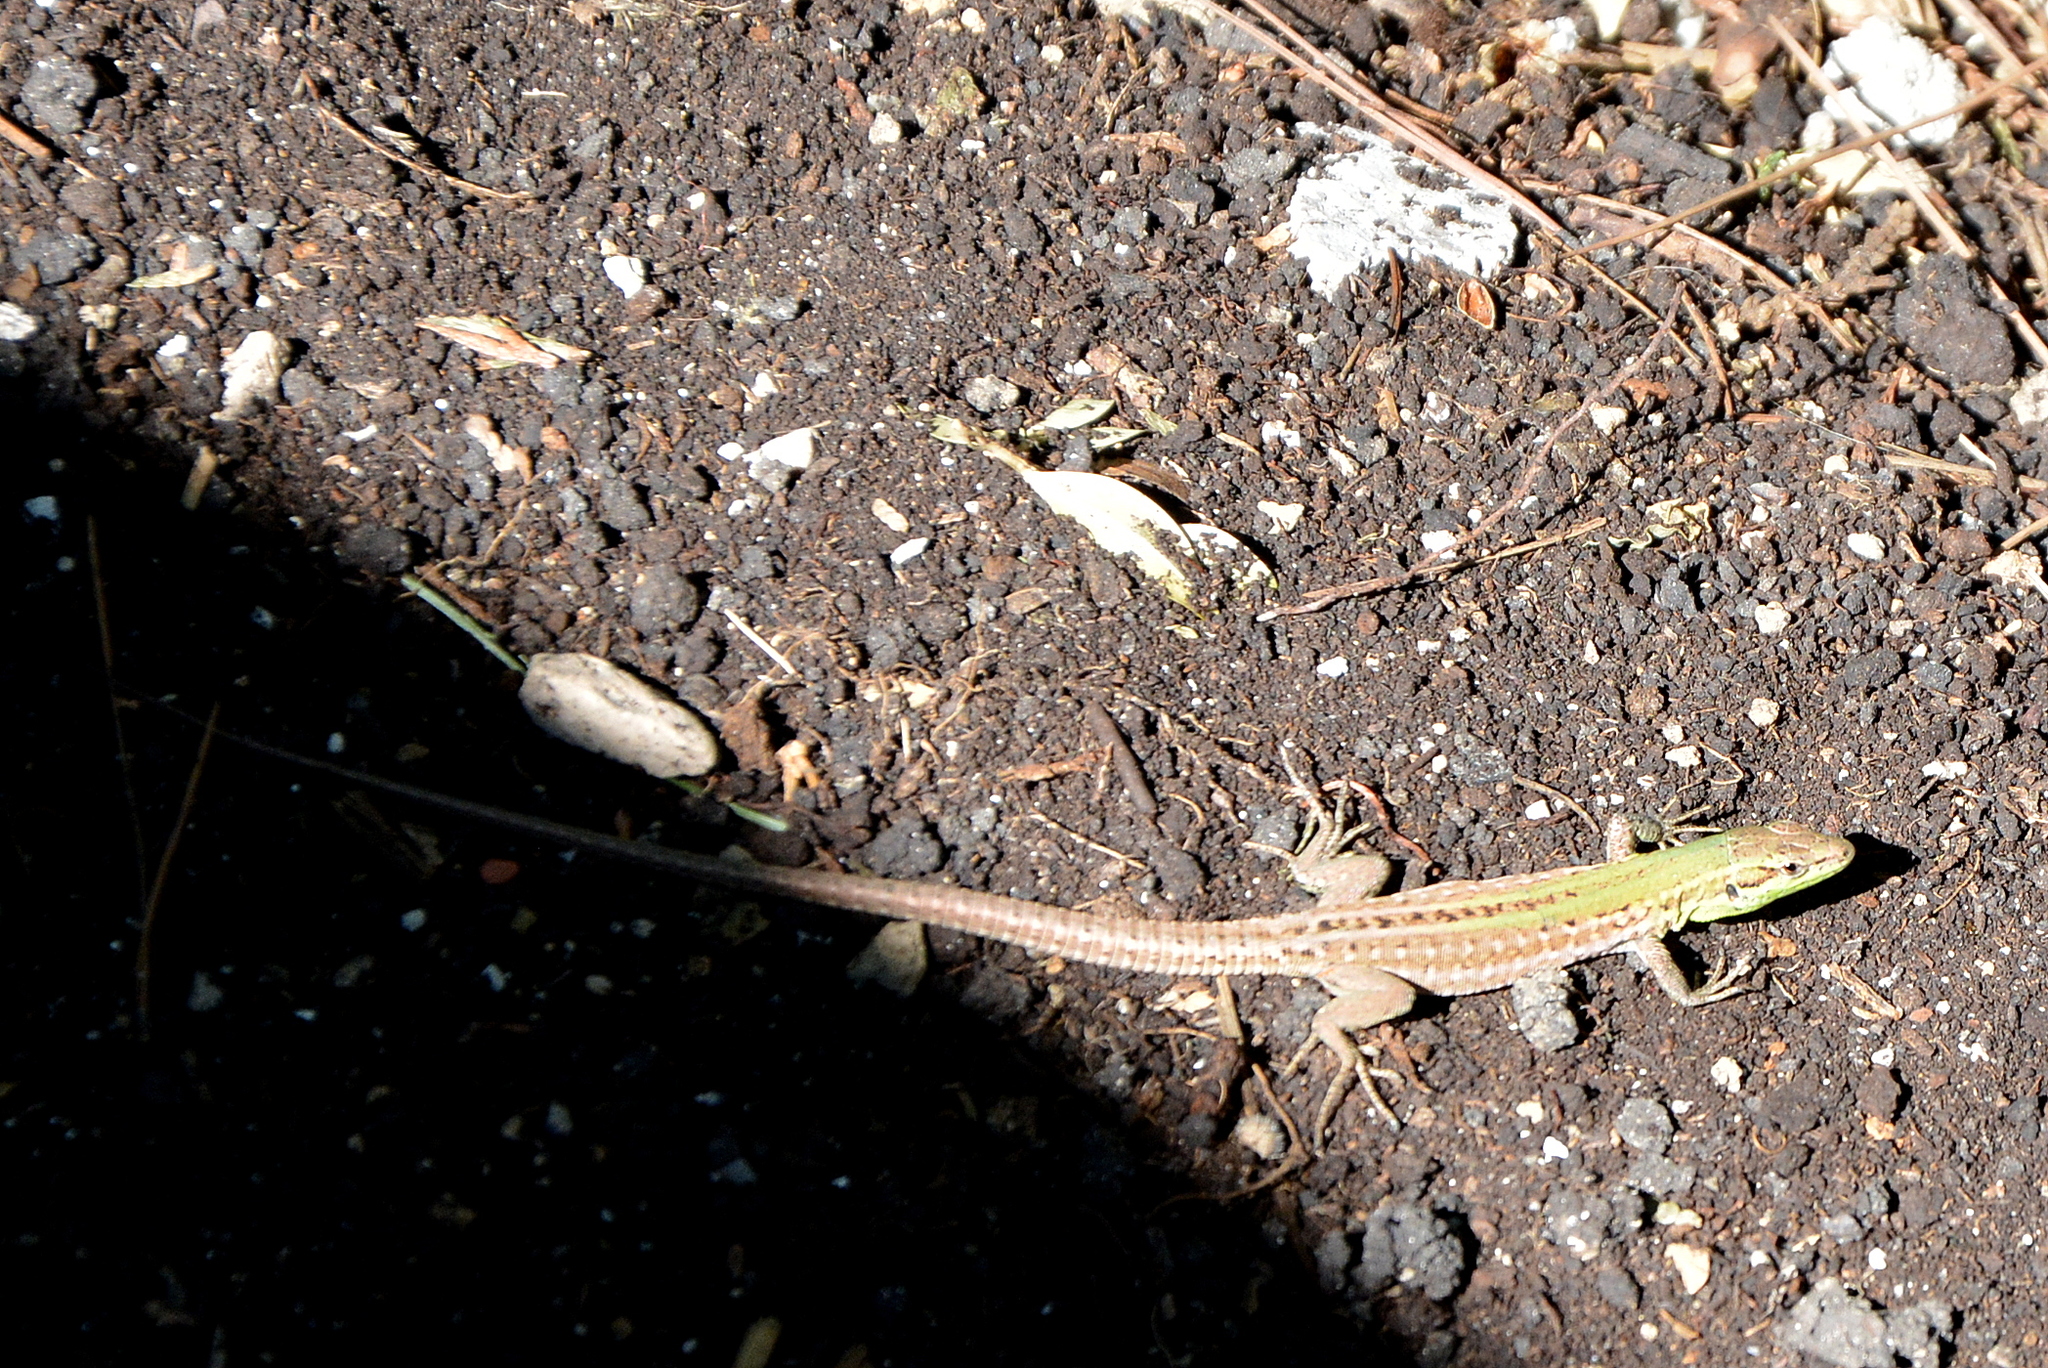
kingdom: Animalia
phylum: Chordata
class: Squamata
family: Lacertidae
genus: Podarcis
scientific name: Podarcis siculus
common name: Italian wall lizard
